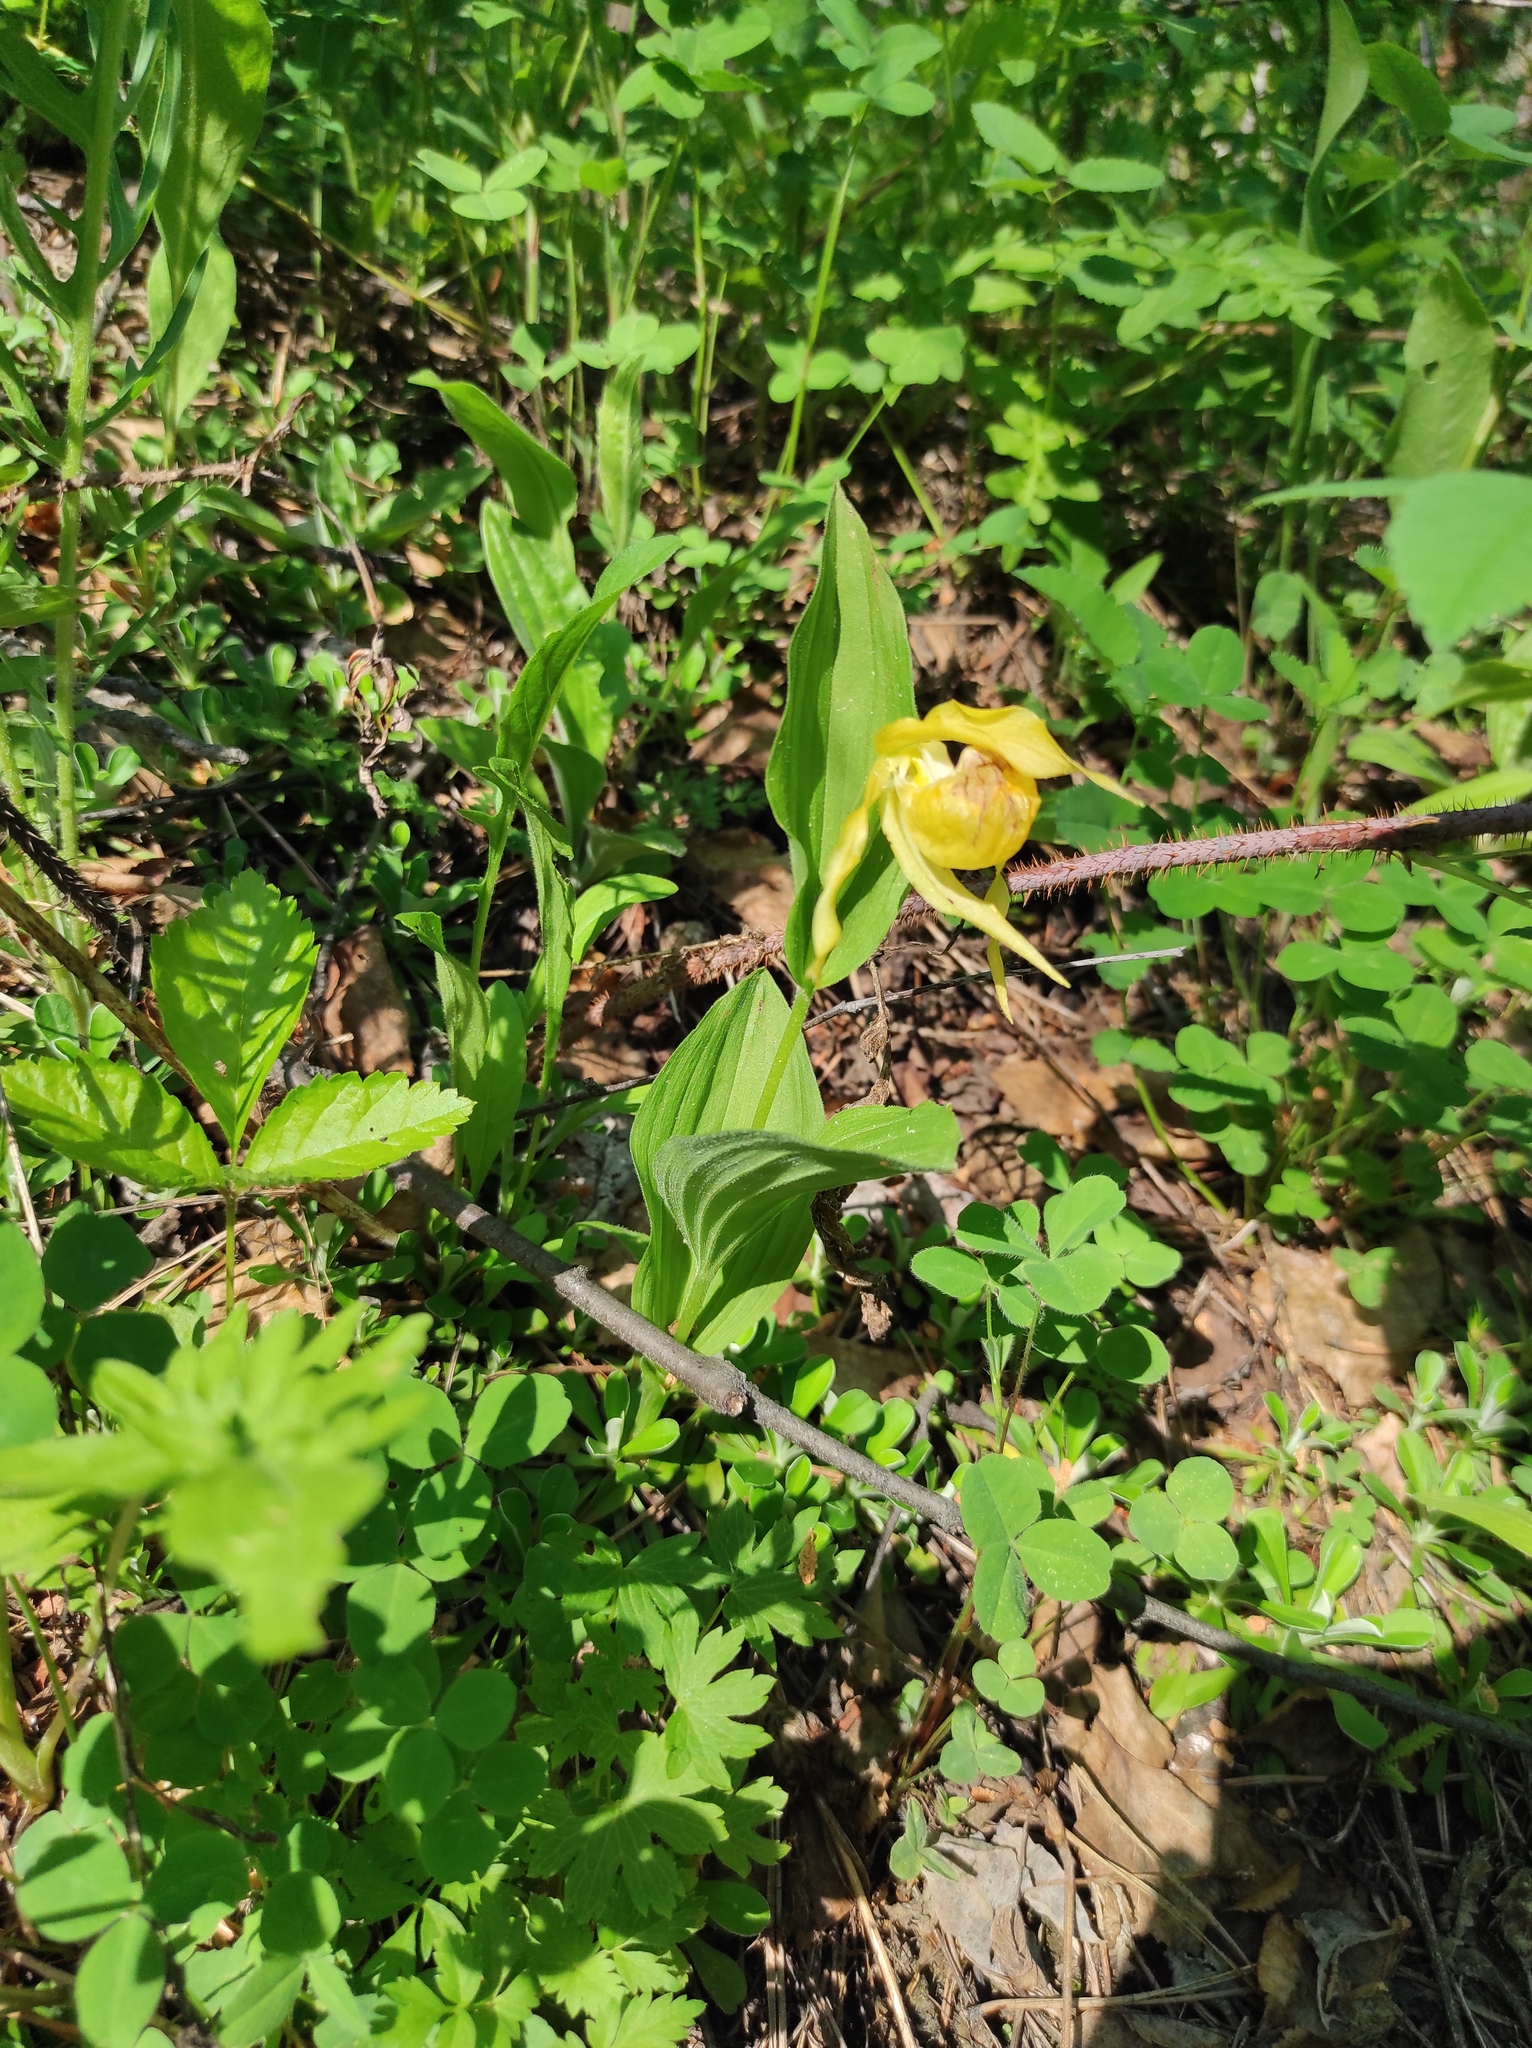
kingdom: Plantae
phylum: Tracheophyta
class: Liliopsida
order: Asparagales
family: Orchidaceae
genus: Cypripedium
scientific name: Cypripedium calceolus
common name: Lady's-slipper
